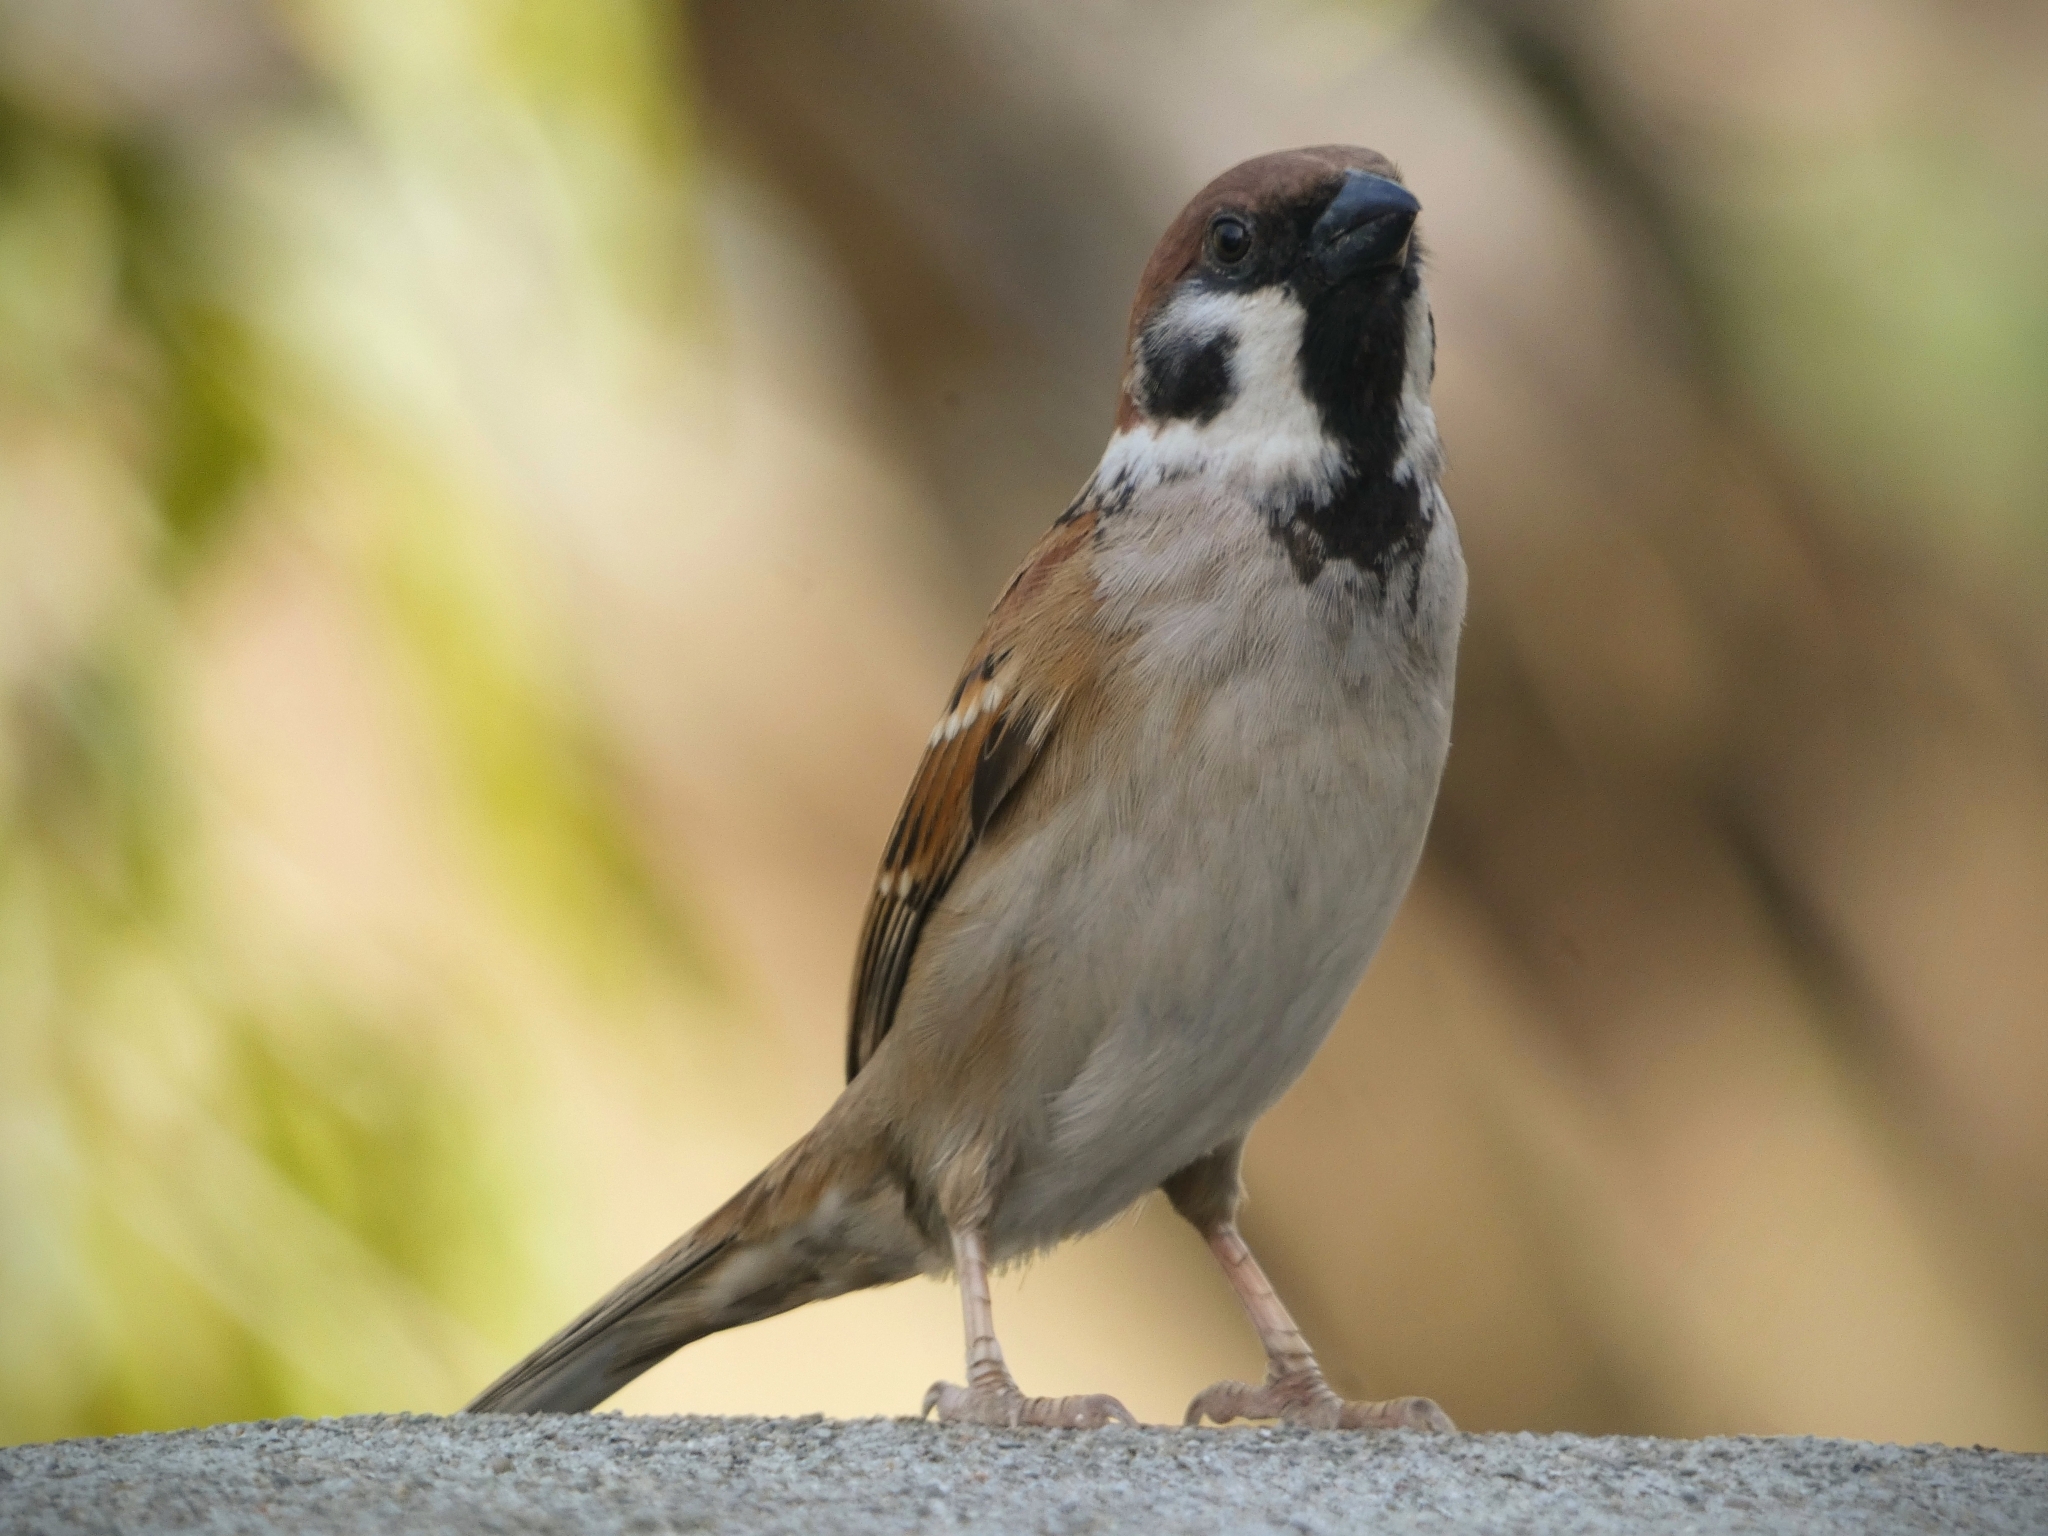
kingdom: Animalia
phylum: Chordata
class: Aves
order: Passeriformes
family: Passeridae
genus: Passer
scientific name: Passer montanus
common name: Eurasian tree sparrow
